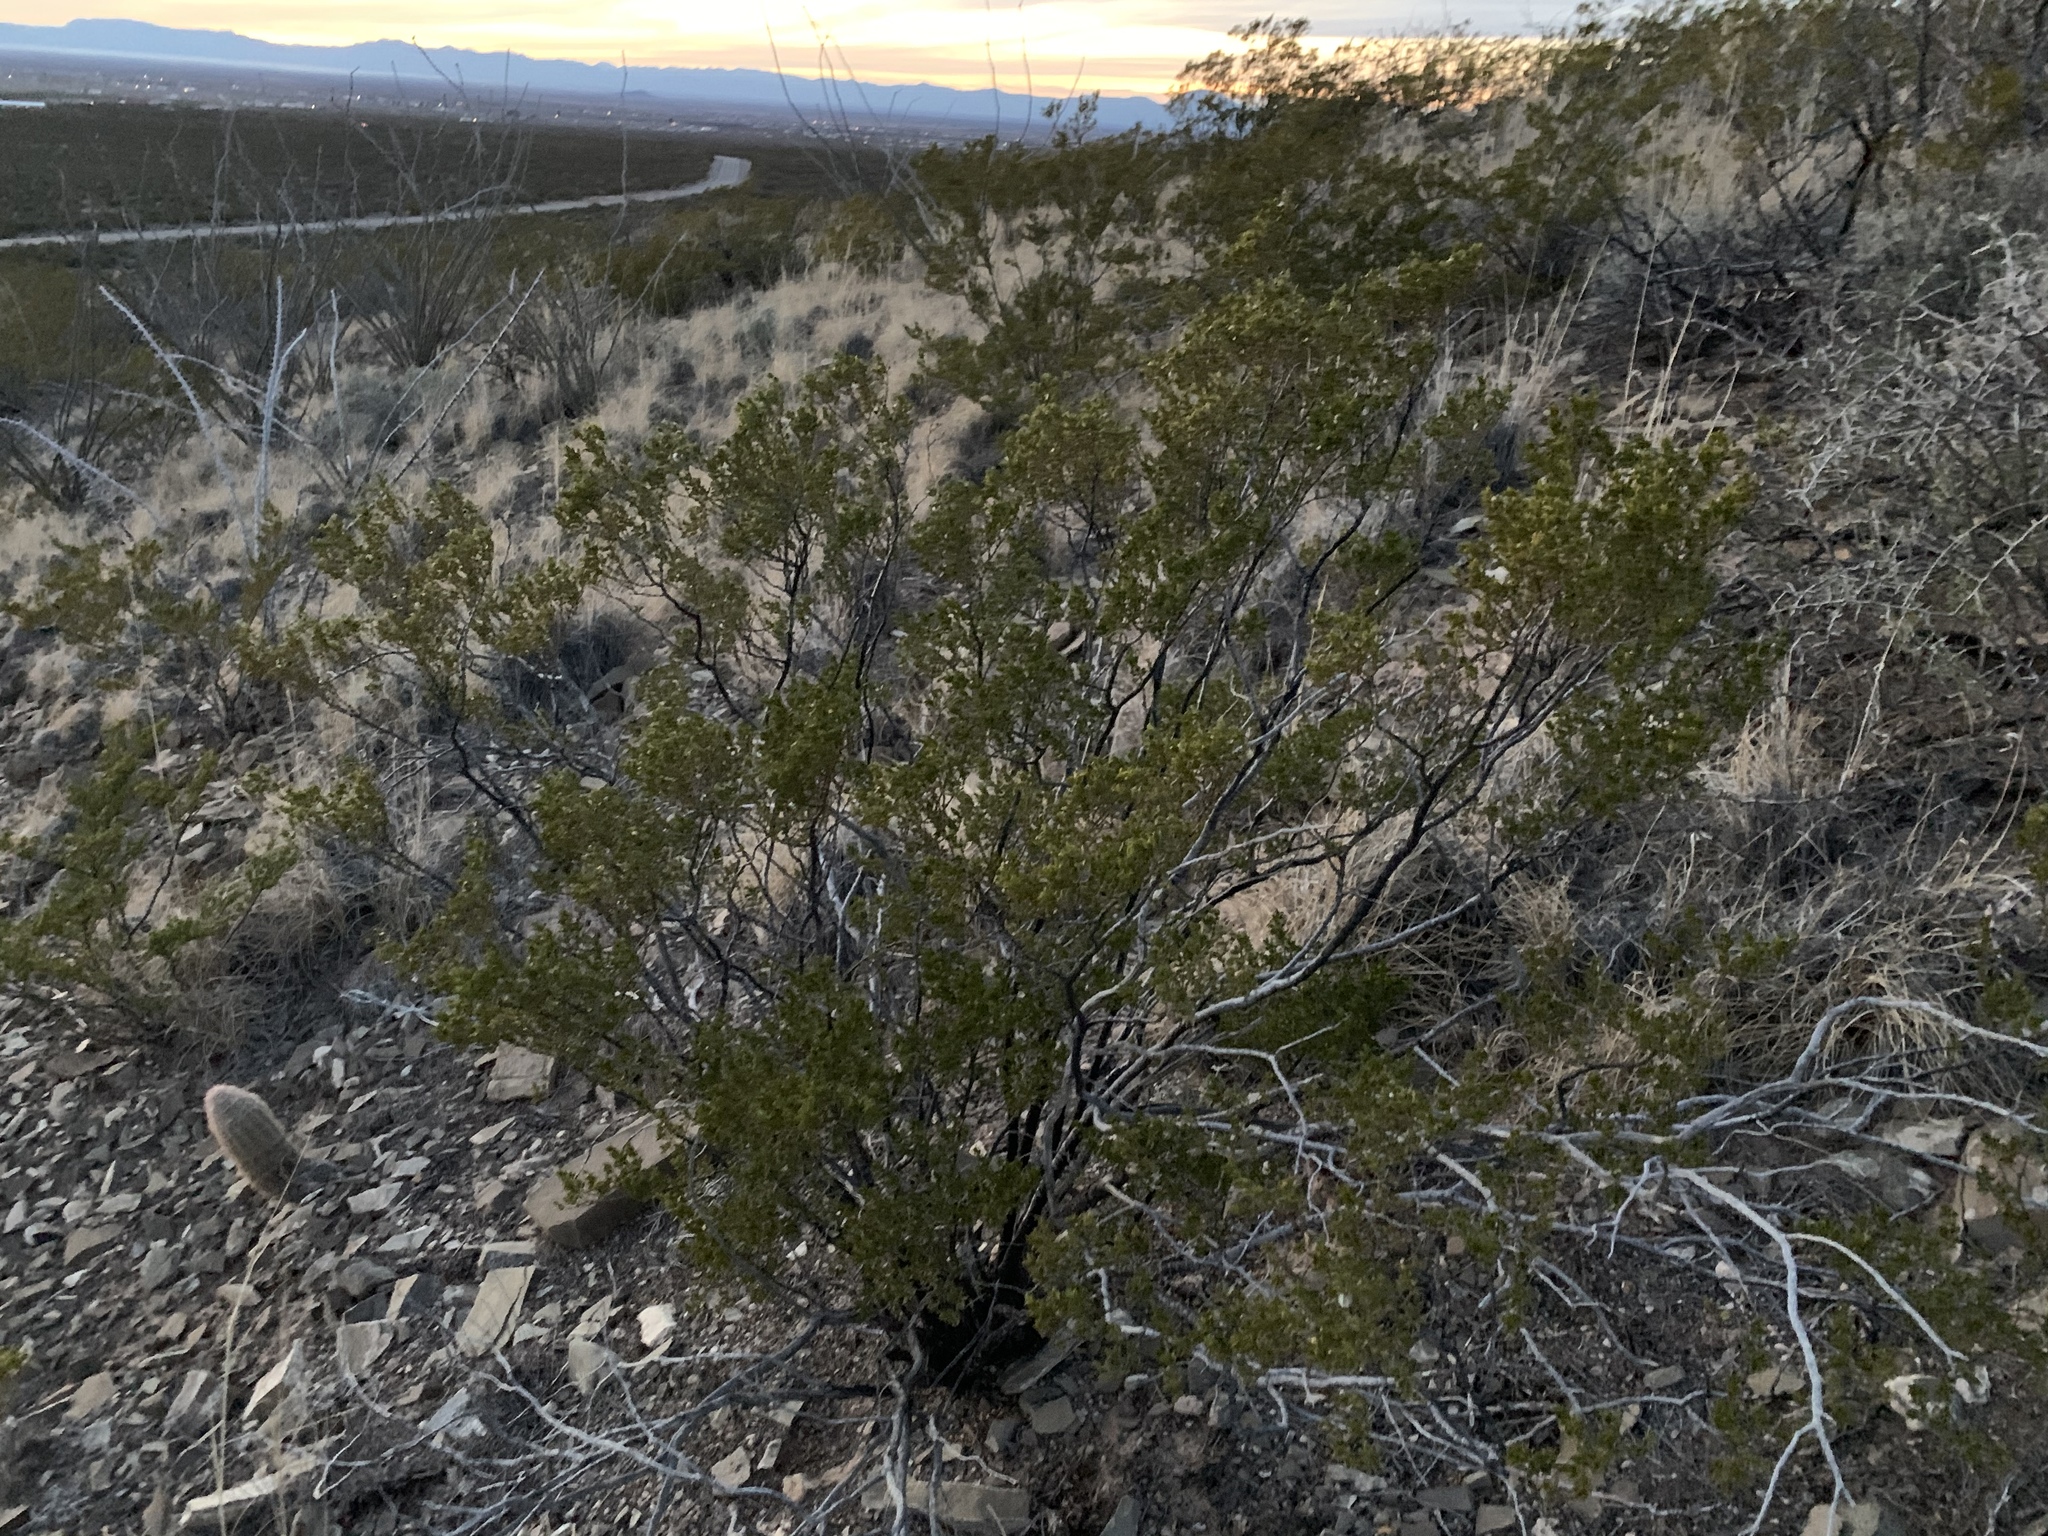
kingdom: Plantae
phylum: Tracheophyta
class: Magnoliopsida
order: Zygophyllales
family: Zygophyllaceae
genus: Larrea
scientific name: Larrea tridentata
